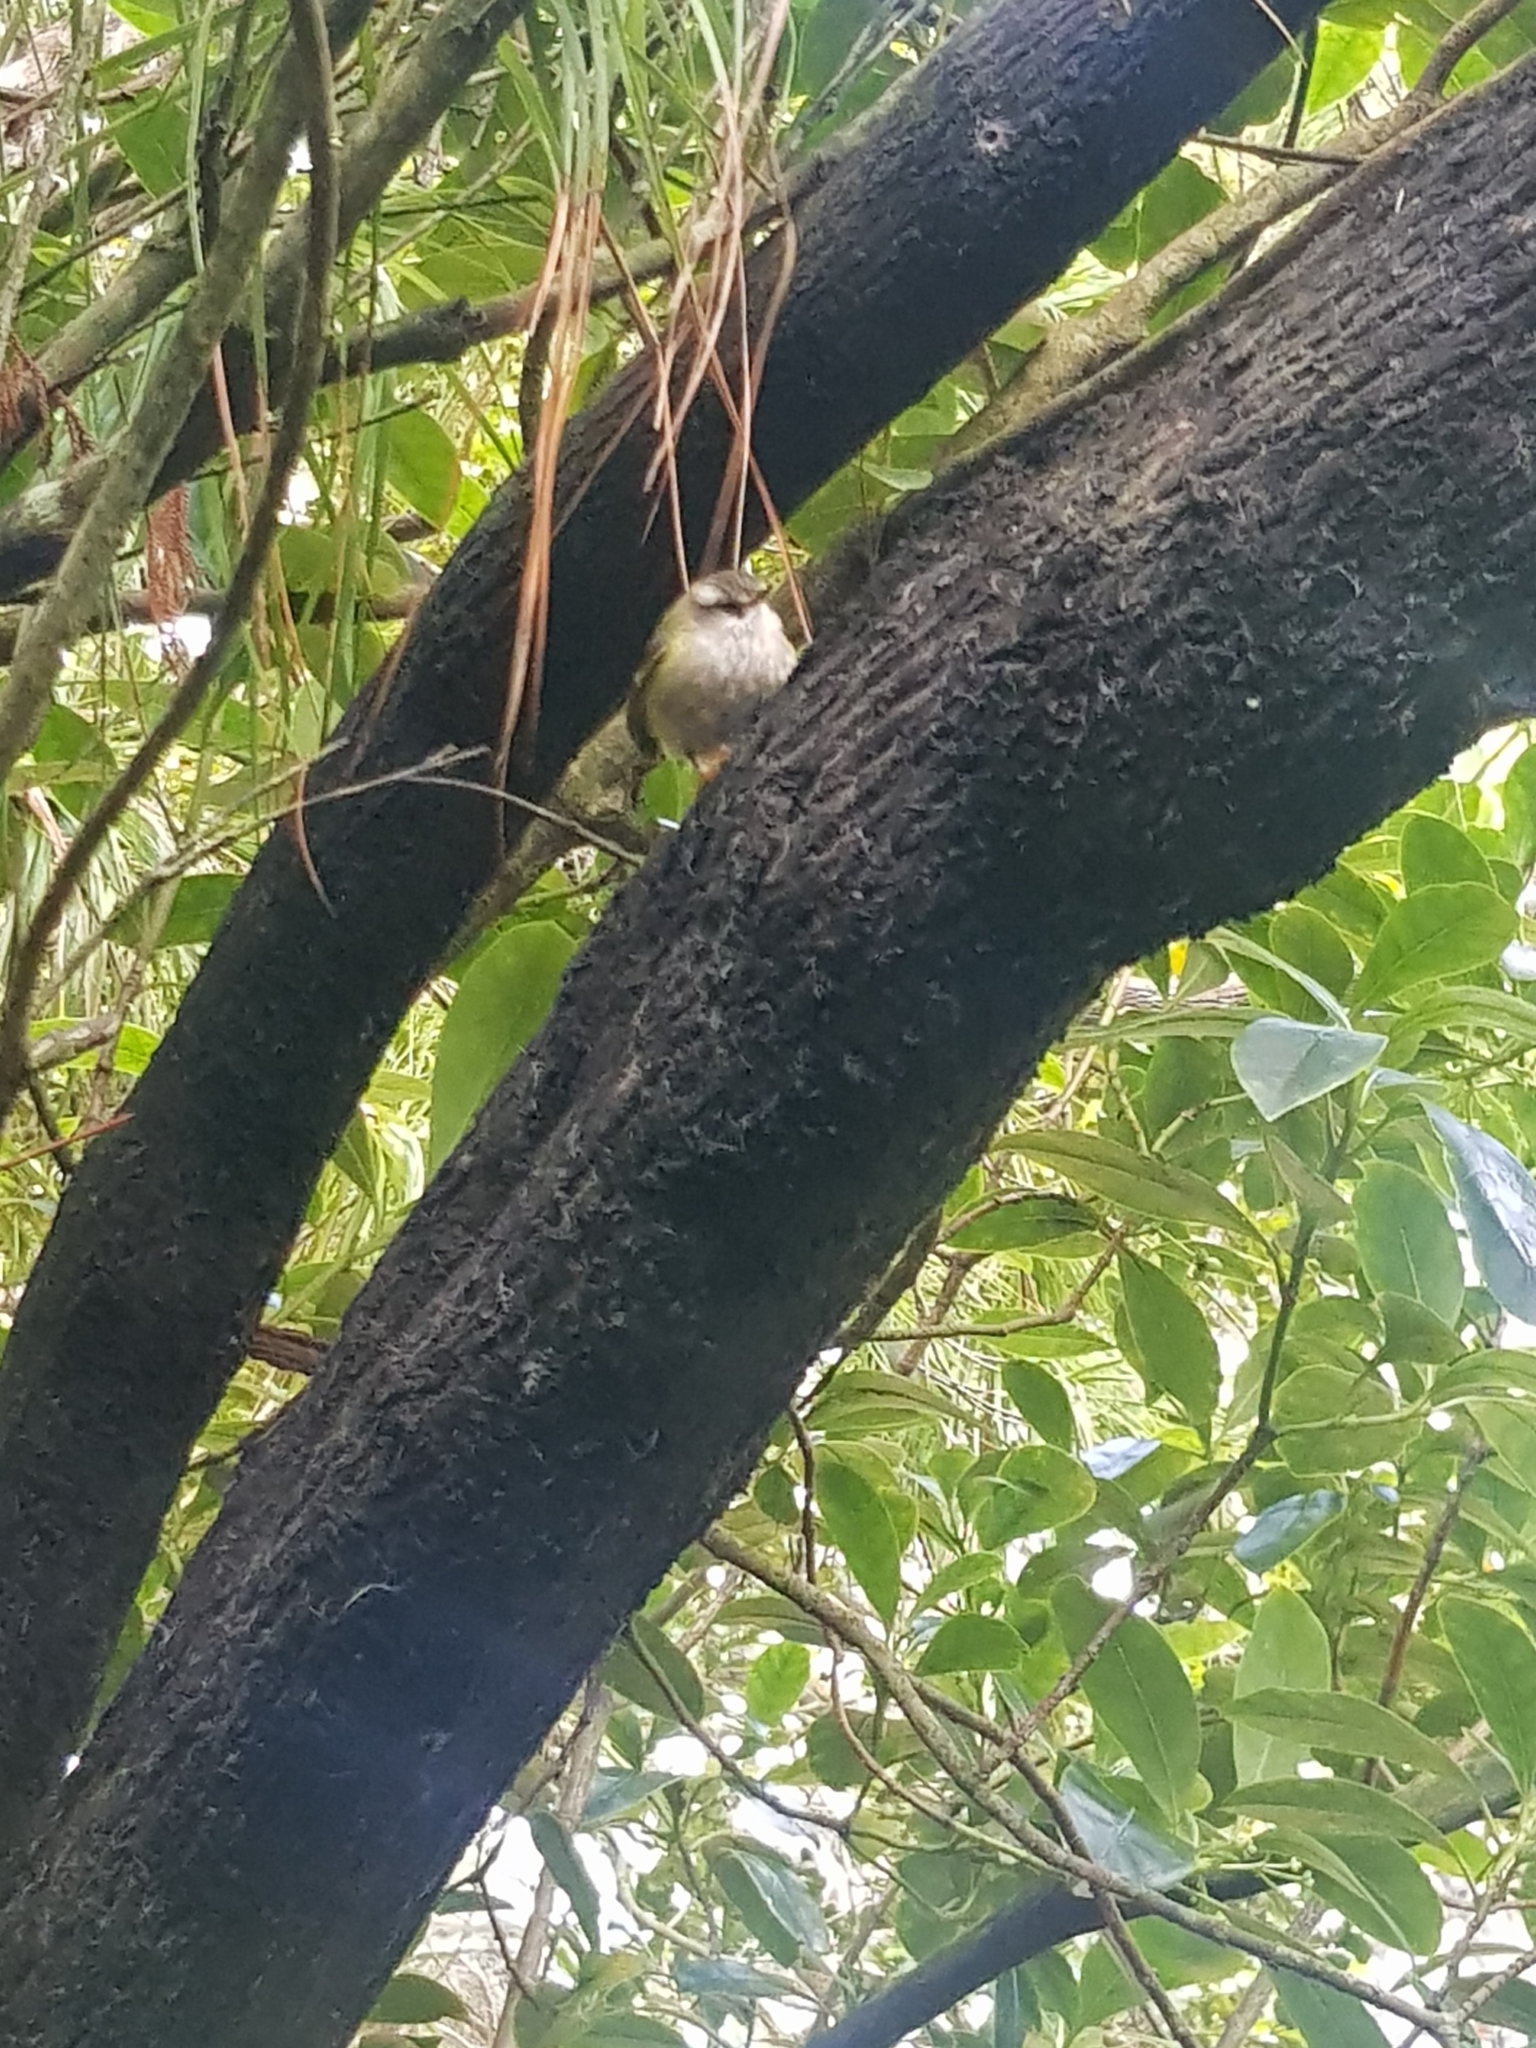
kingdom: Animalia
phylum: Chordata
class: Aves
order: Passeriformes
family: Acanthisittidae
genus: Acanthisitta
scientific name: Acanthisitta chloris
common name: Rifleman
